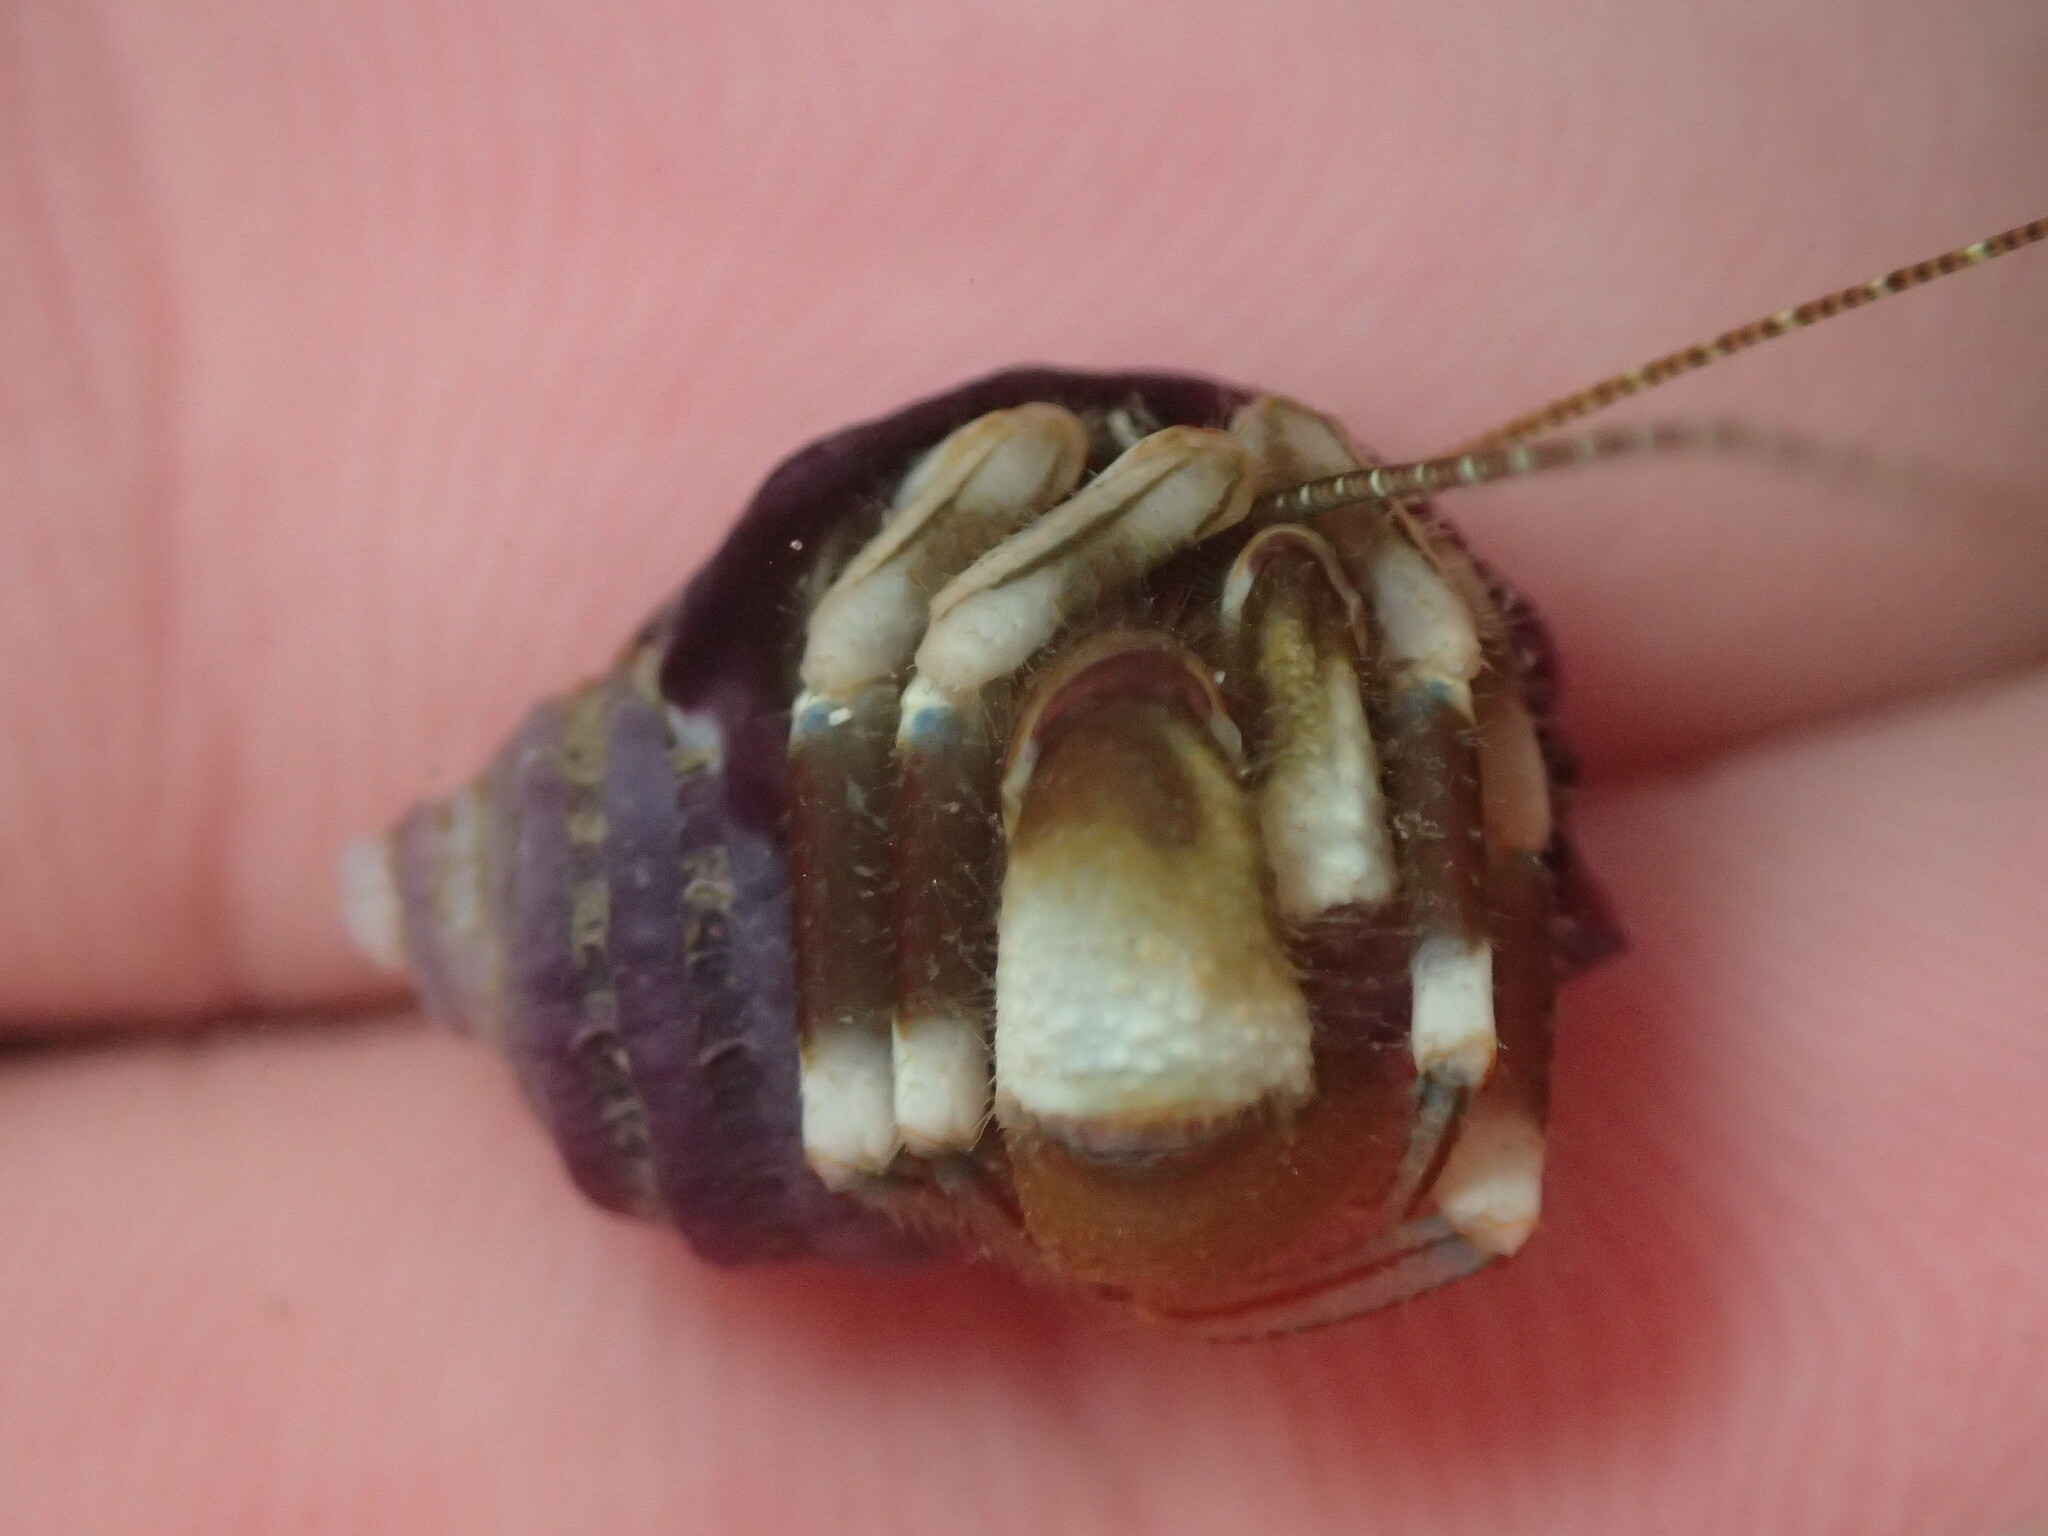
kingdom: Animalia
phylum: Arthropoda
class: Malacostraca
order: Decapoda
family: Paguridae
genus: Pagurus
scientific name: Pagurus hirsutiusculus
